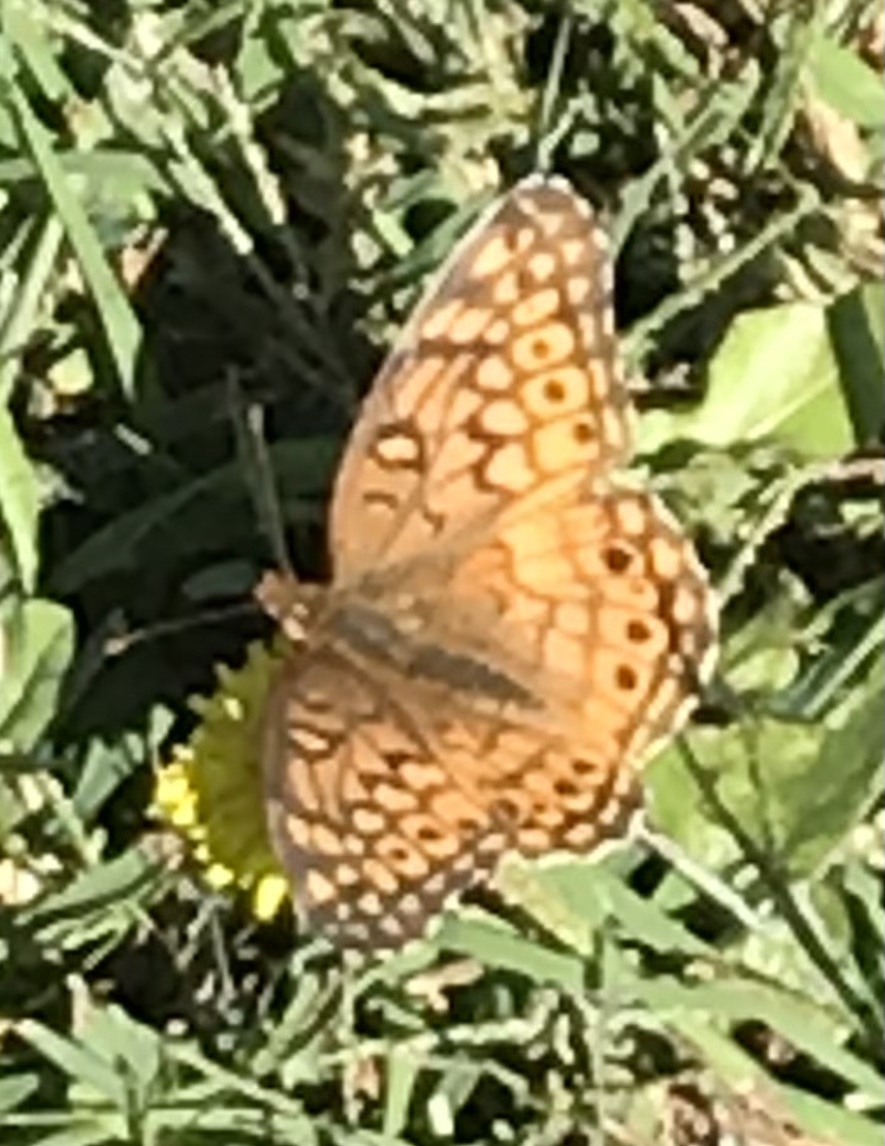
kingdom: Animalia
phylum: Arthropoda
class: Insecta
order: Lepidoptera
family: Nymphalidae
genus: Euptoieta
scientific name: Euptoieta claudia
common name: Variegated fritillary
